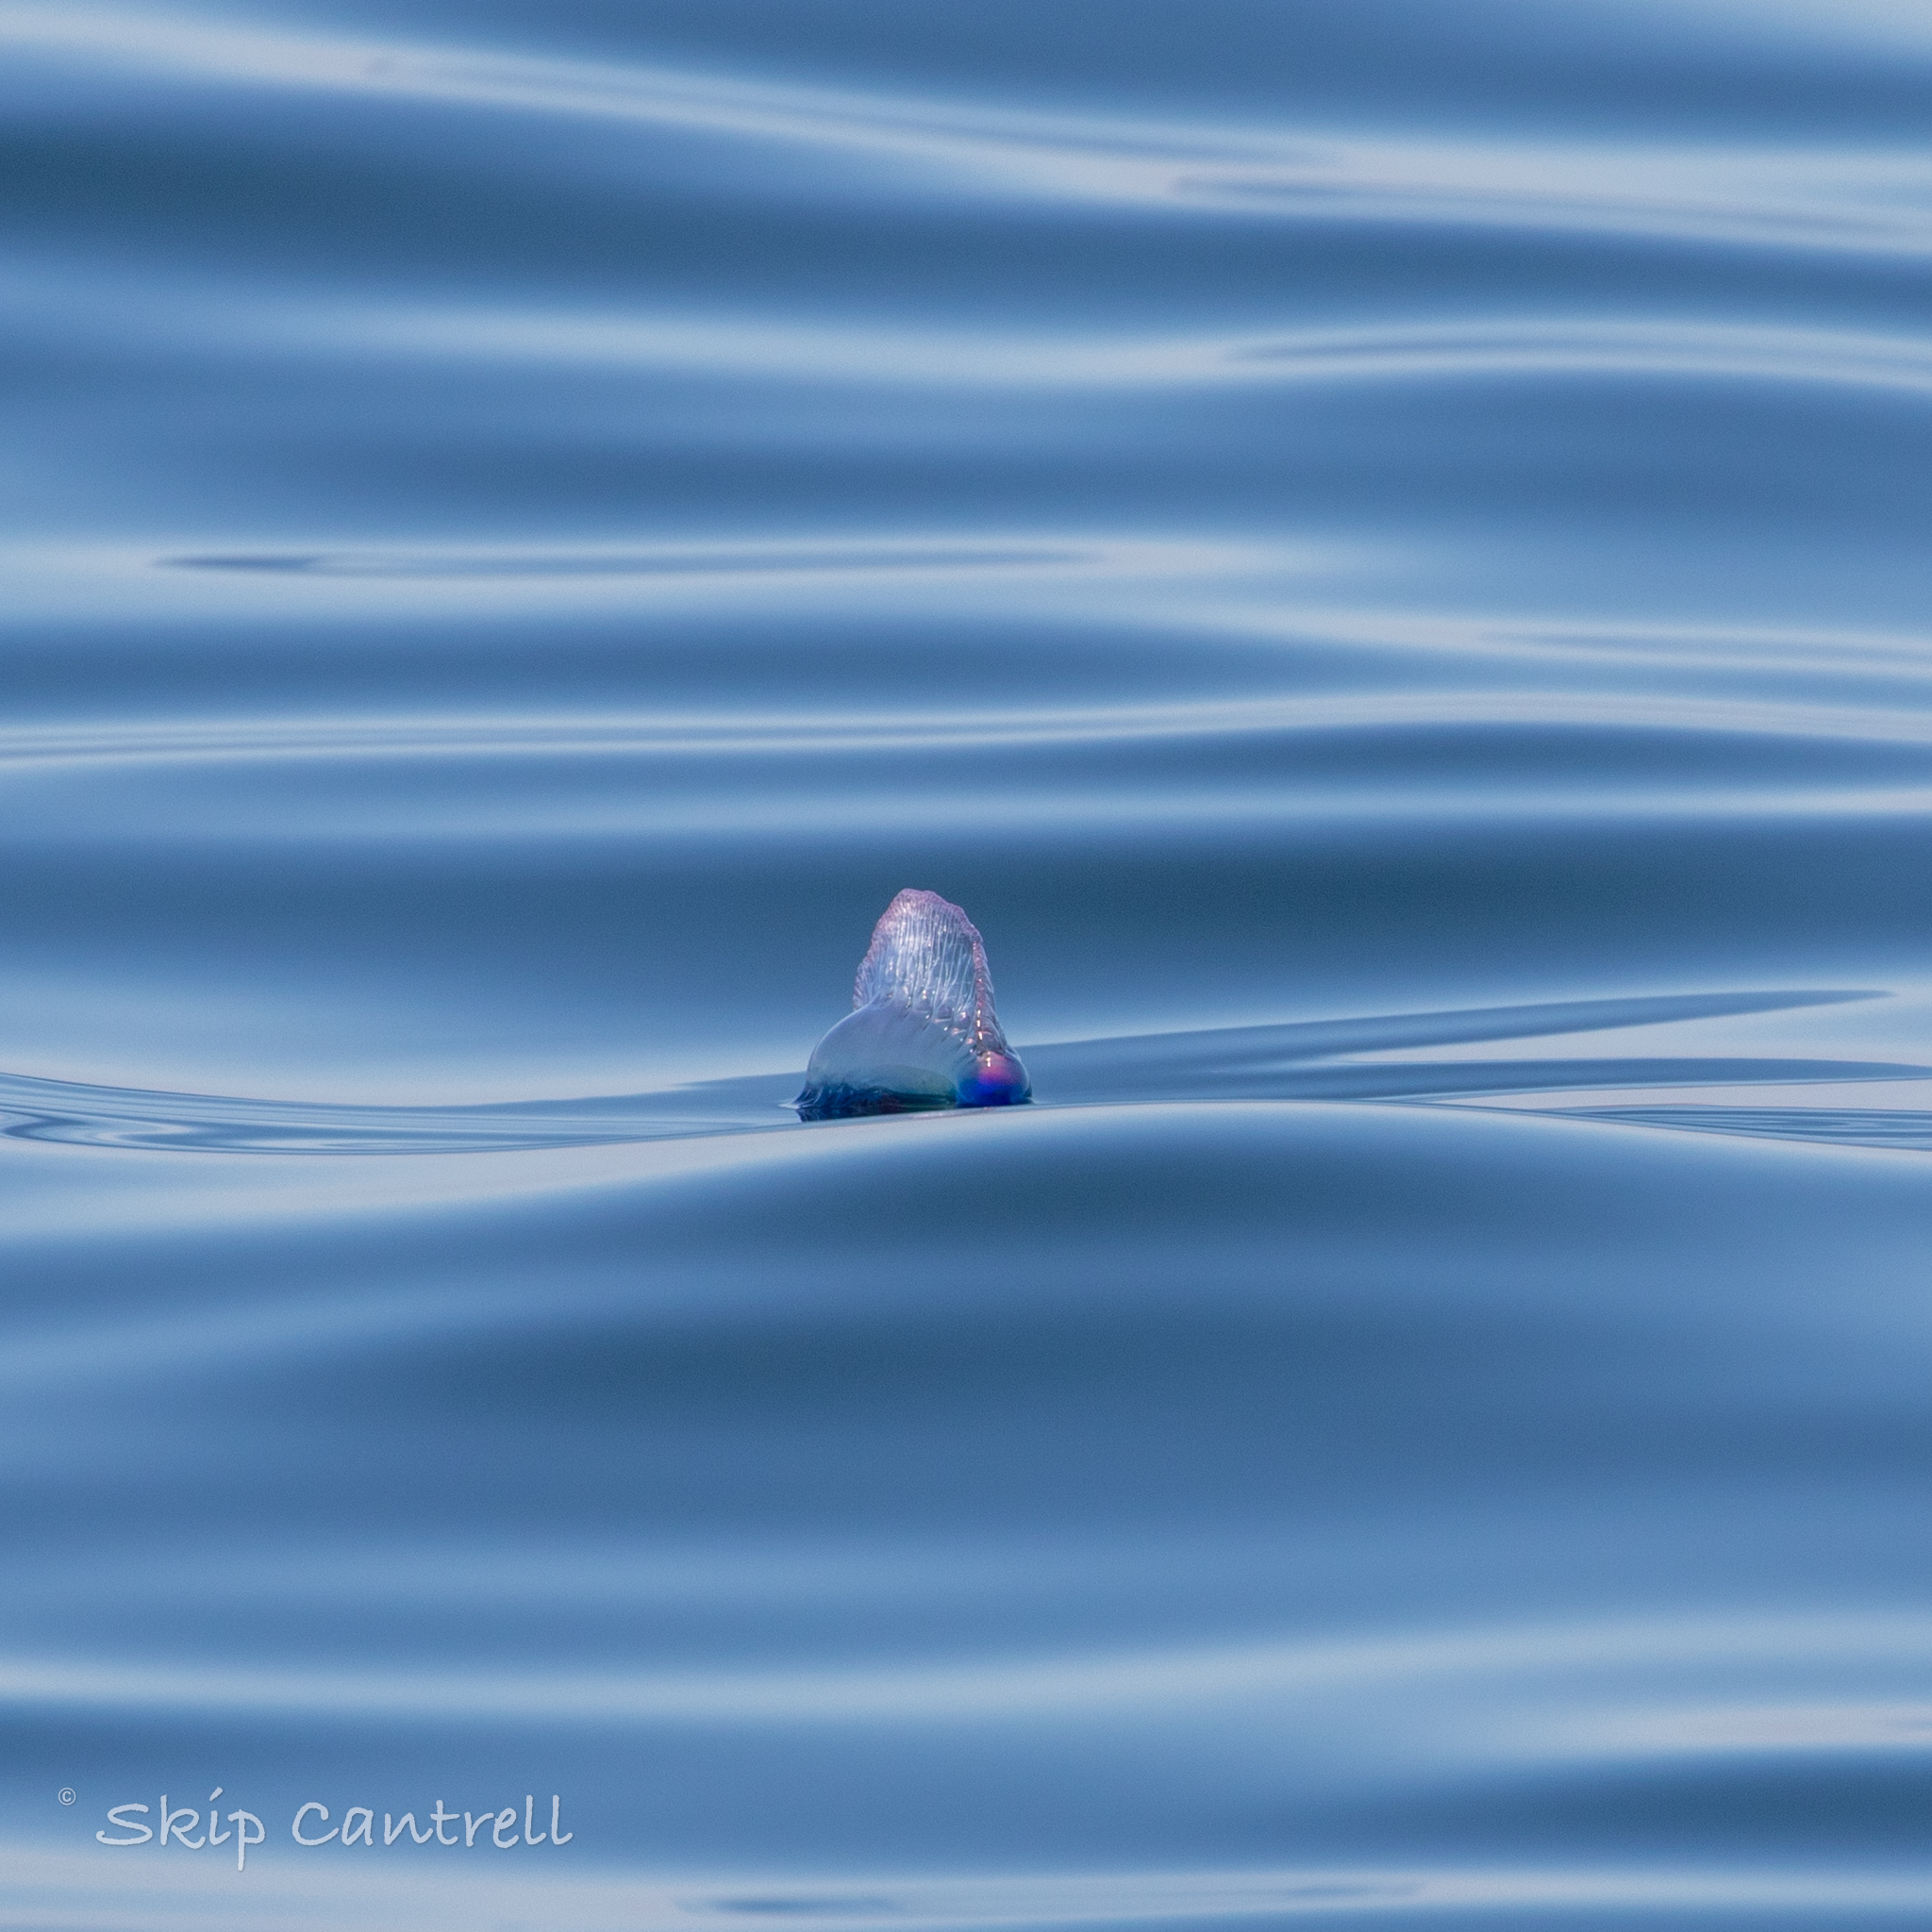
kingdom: Animalia
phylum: Cnidaria
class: Hydrozoa
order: Siphonophorae
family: Physaliidae
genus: Physalia
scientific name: Physalia physalis
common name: Portuguese man-of-war
